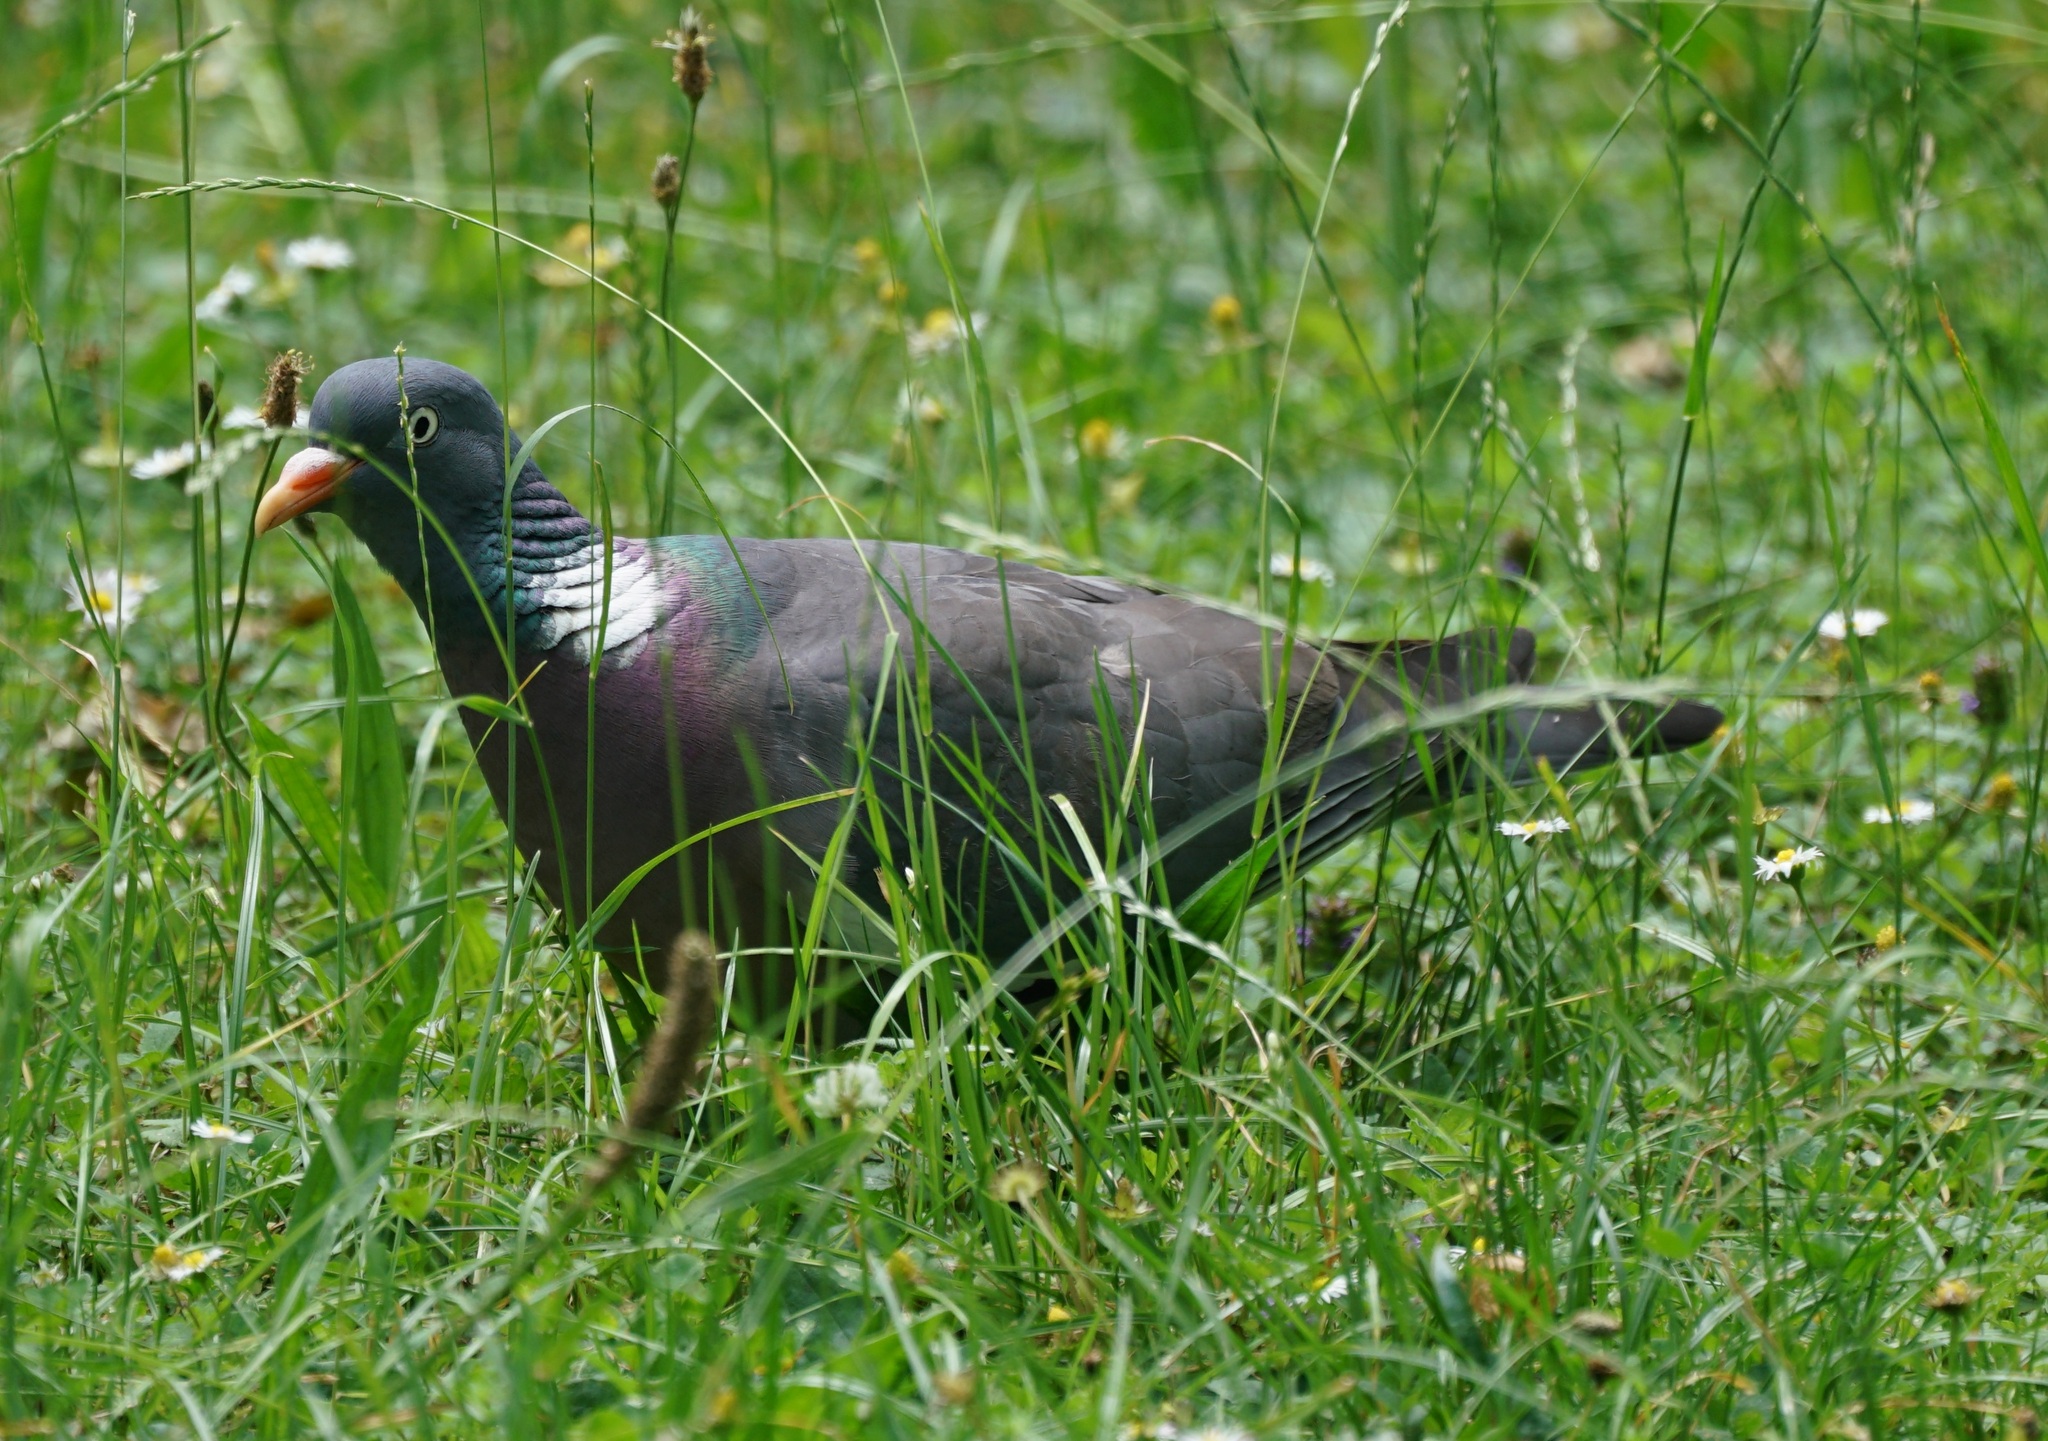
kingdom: Animalia
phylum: Chordata
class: Aves
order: Columbiformes
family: Columbidae
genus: Columba
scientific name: Columba palumbus
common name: Common wood pigeon
